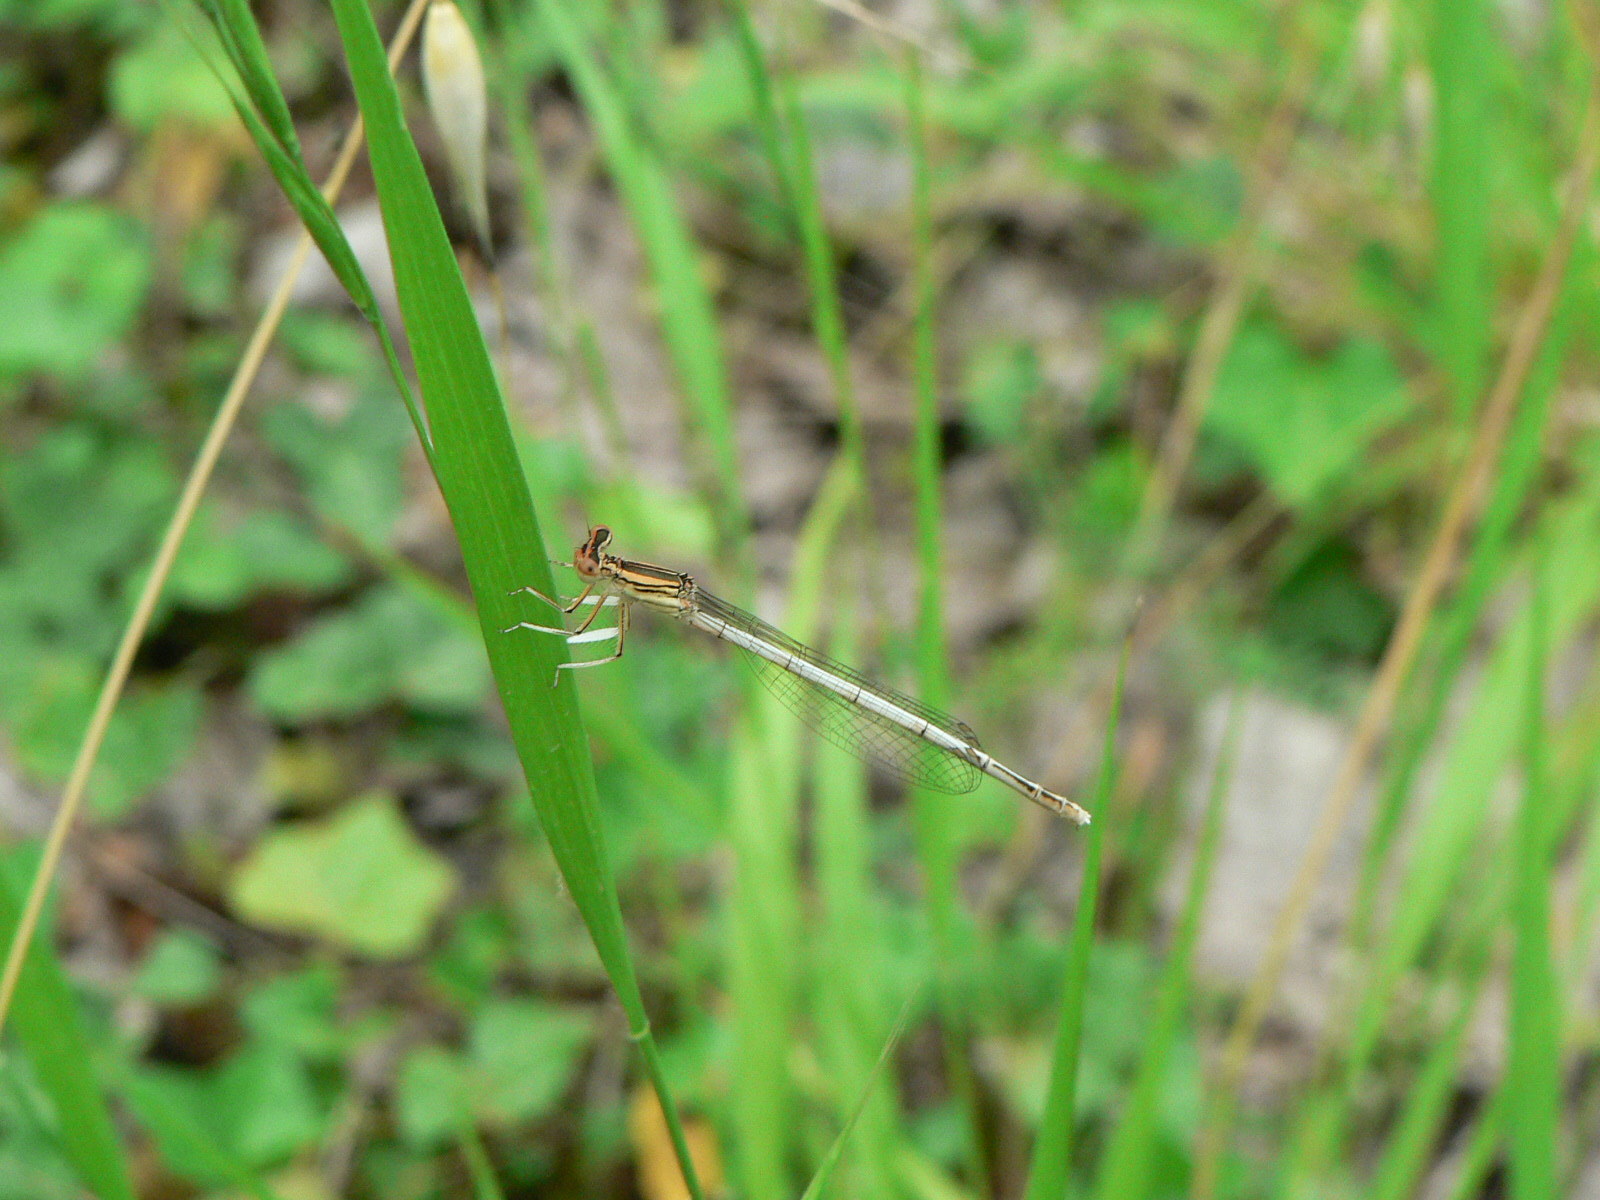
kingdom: Animalia
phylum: Arthropoda
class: Insecta
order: Odonata
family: Platycnemididae
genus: Platycnemis
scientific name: Platycnemis latipes
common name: White featherleg
